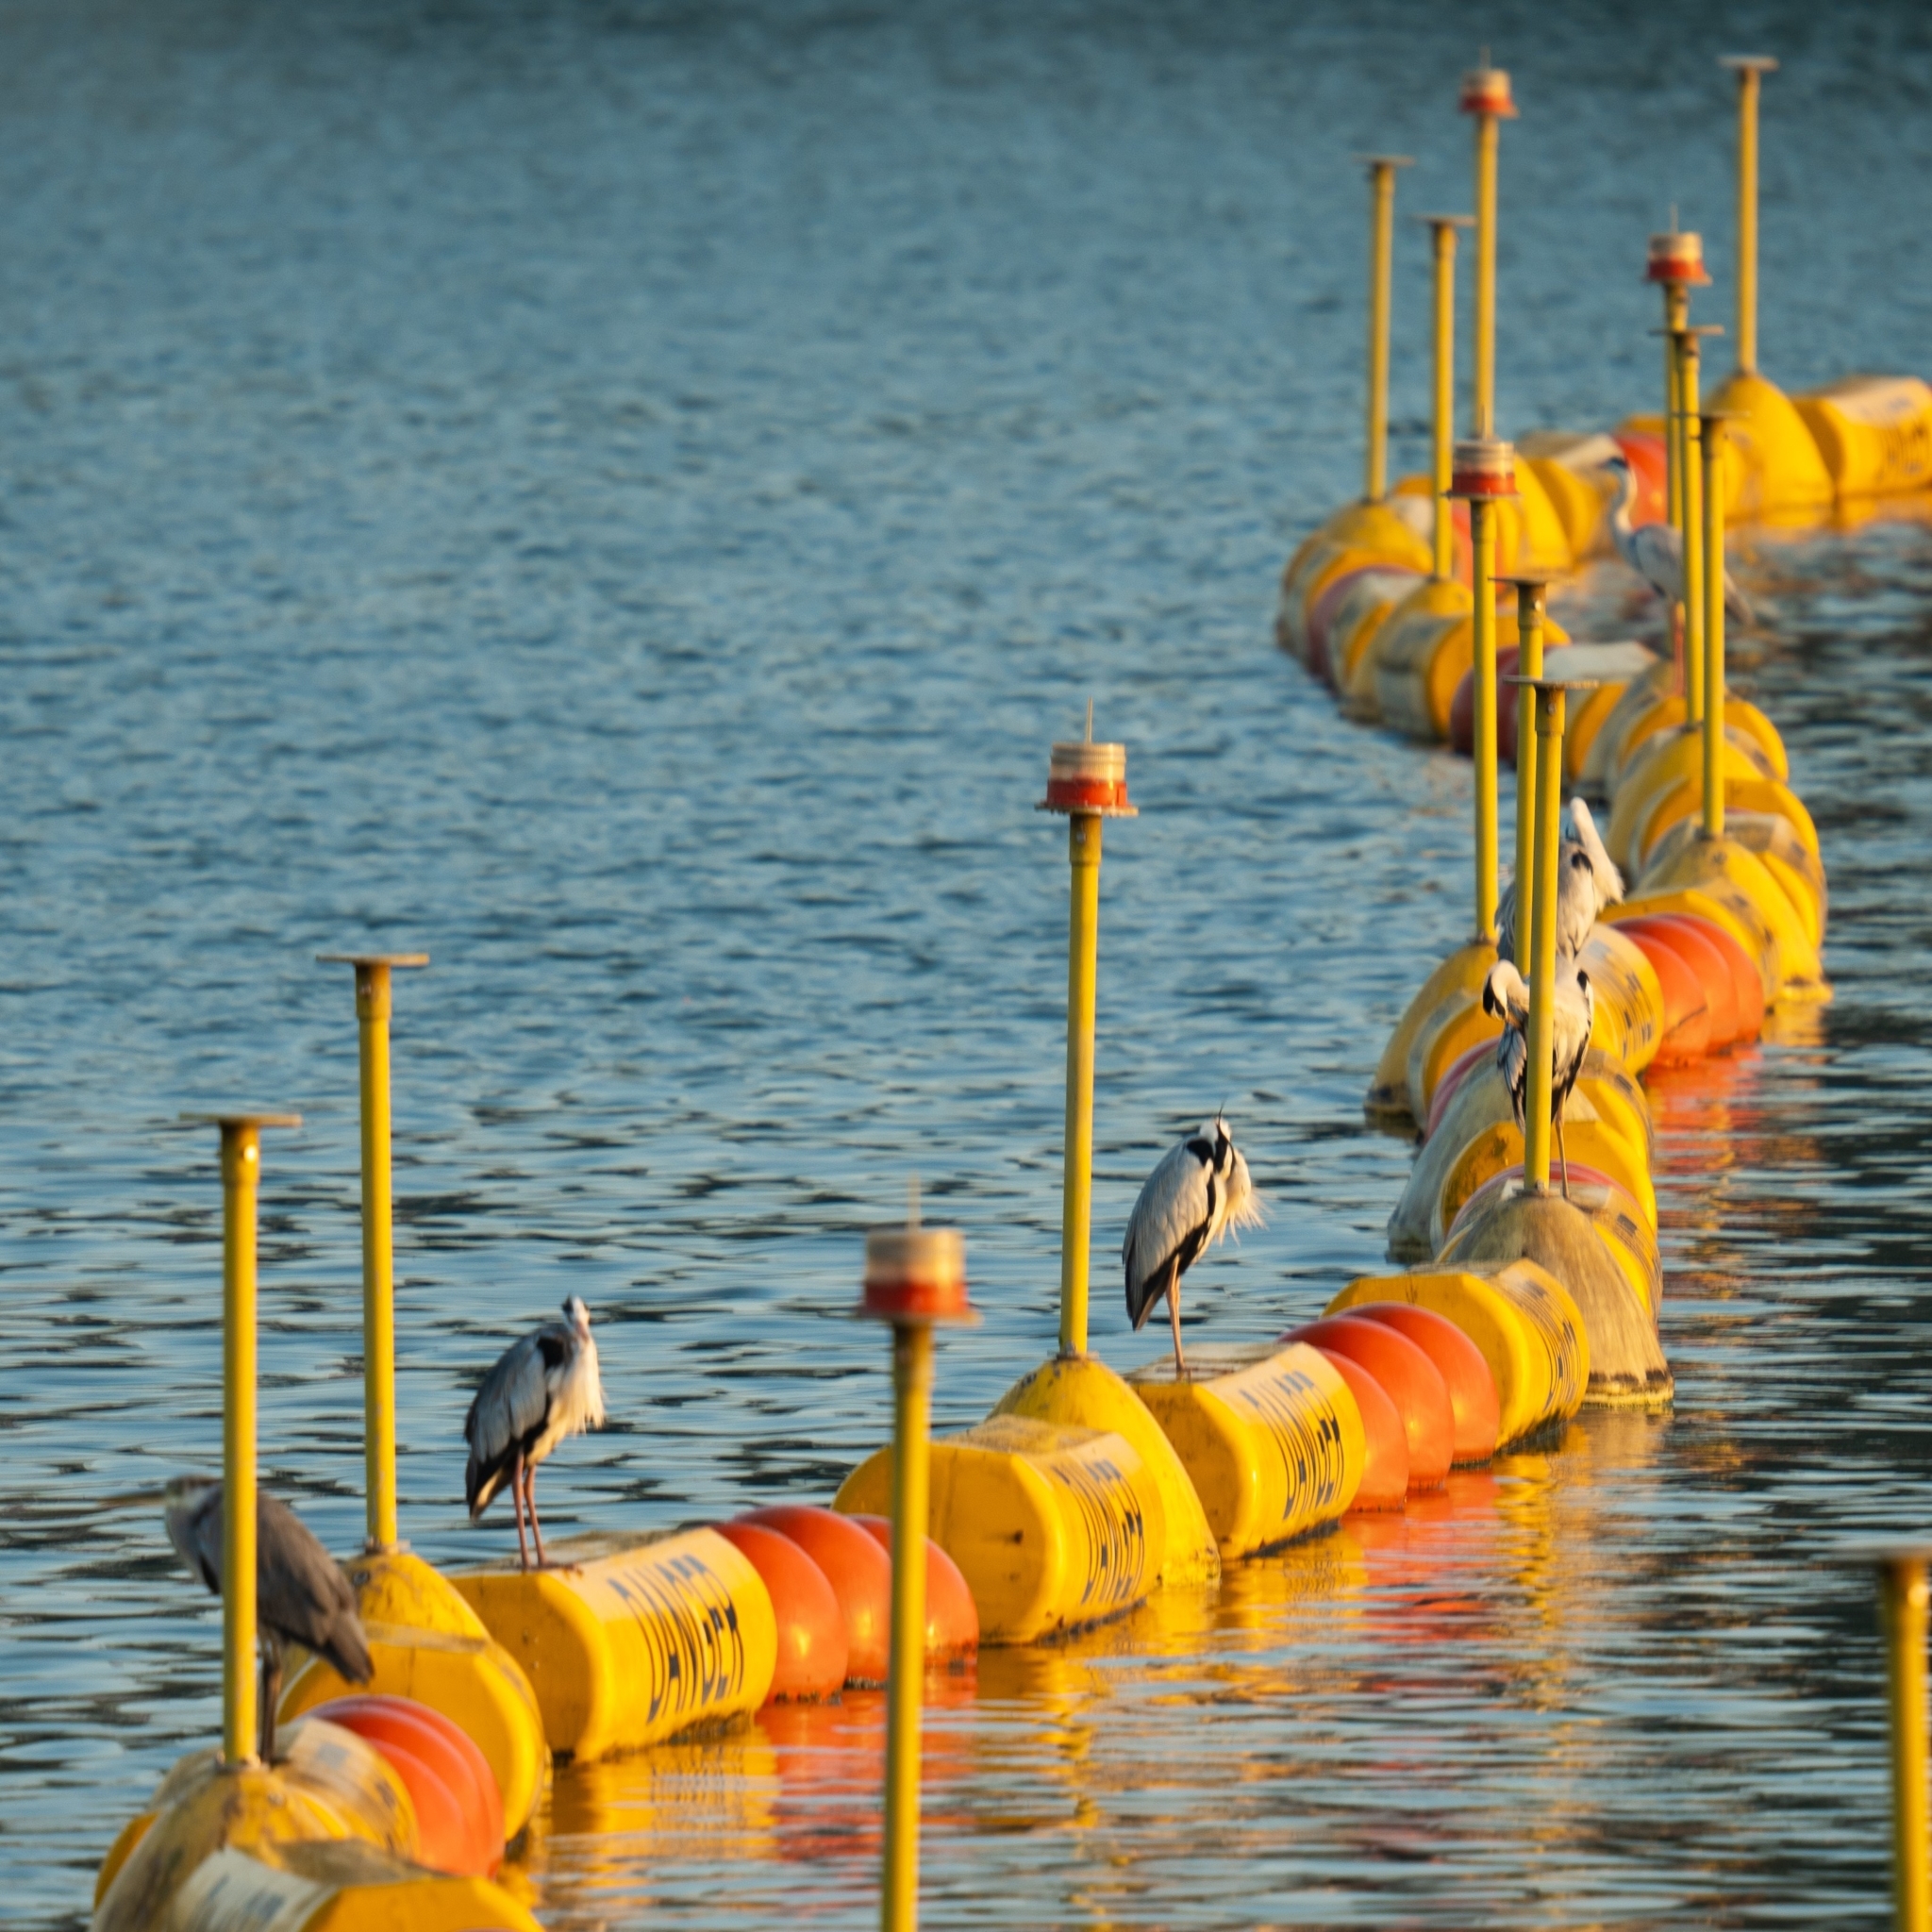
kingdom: Animalia
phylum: Chordata
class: Aves
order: Pelecaniformes
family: Ardeidae
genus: Ardea
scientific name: Ardea cinerea
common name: Grey heron
